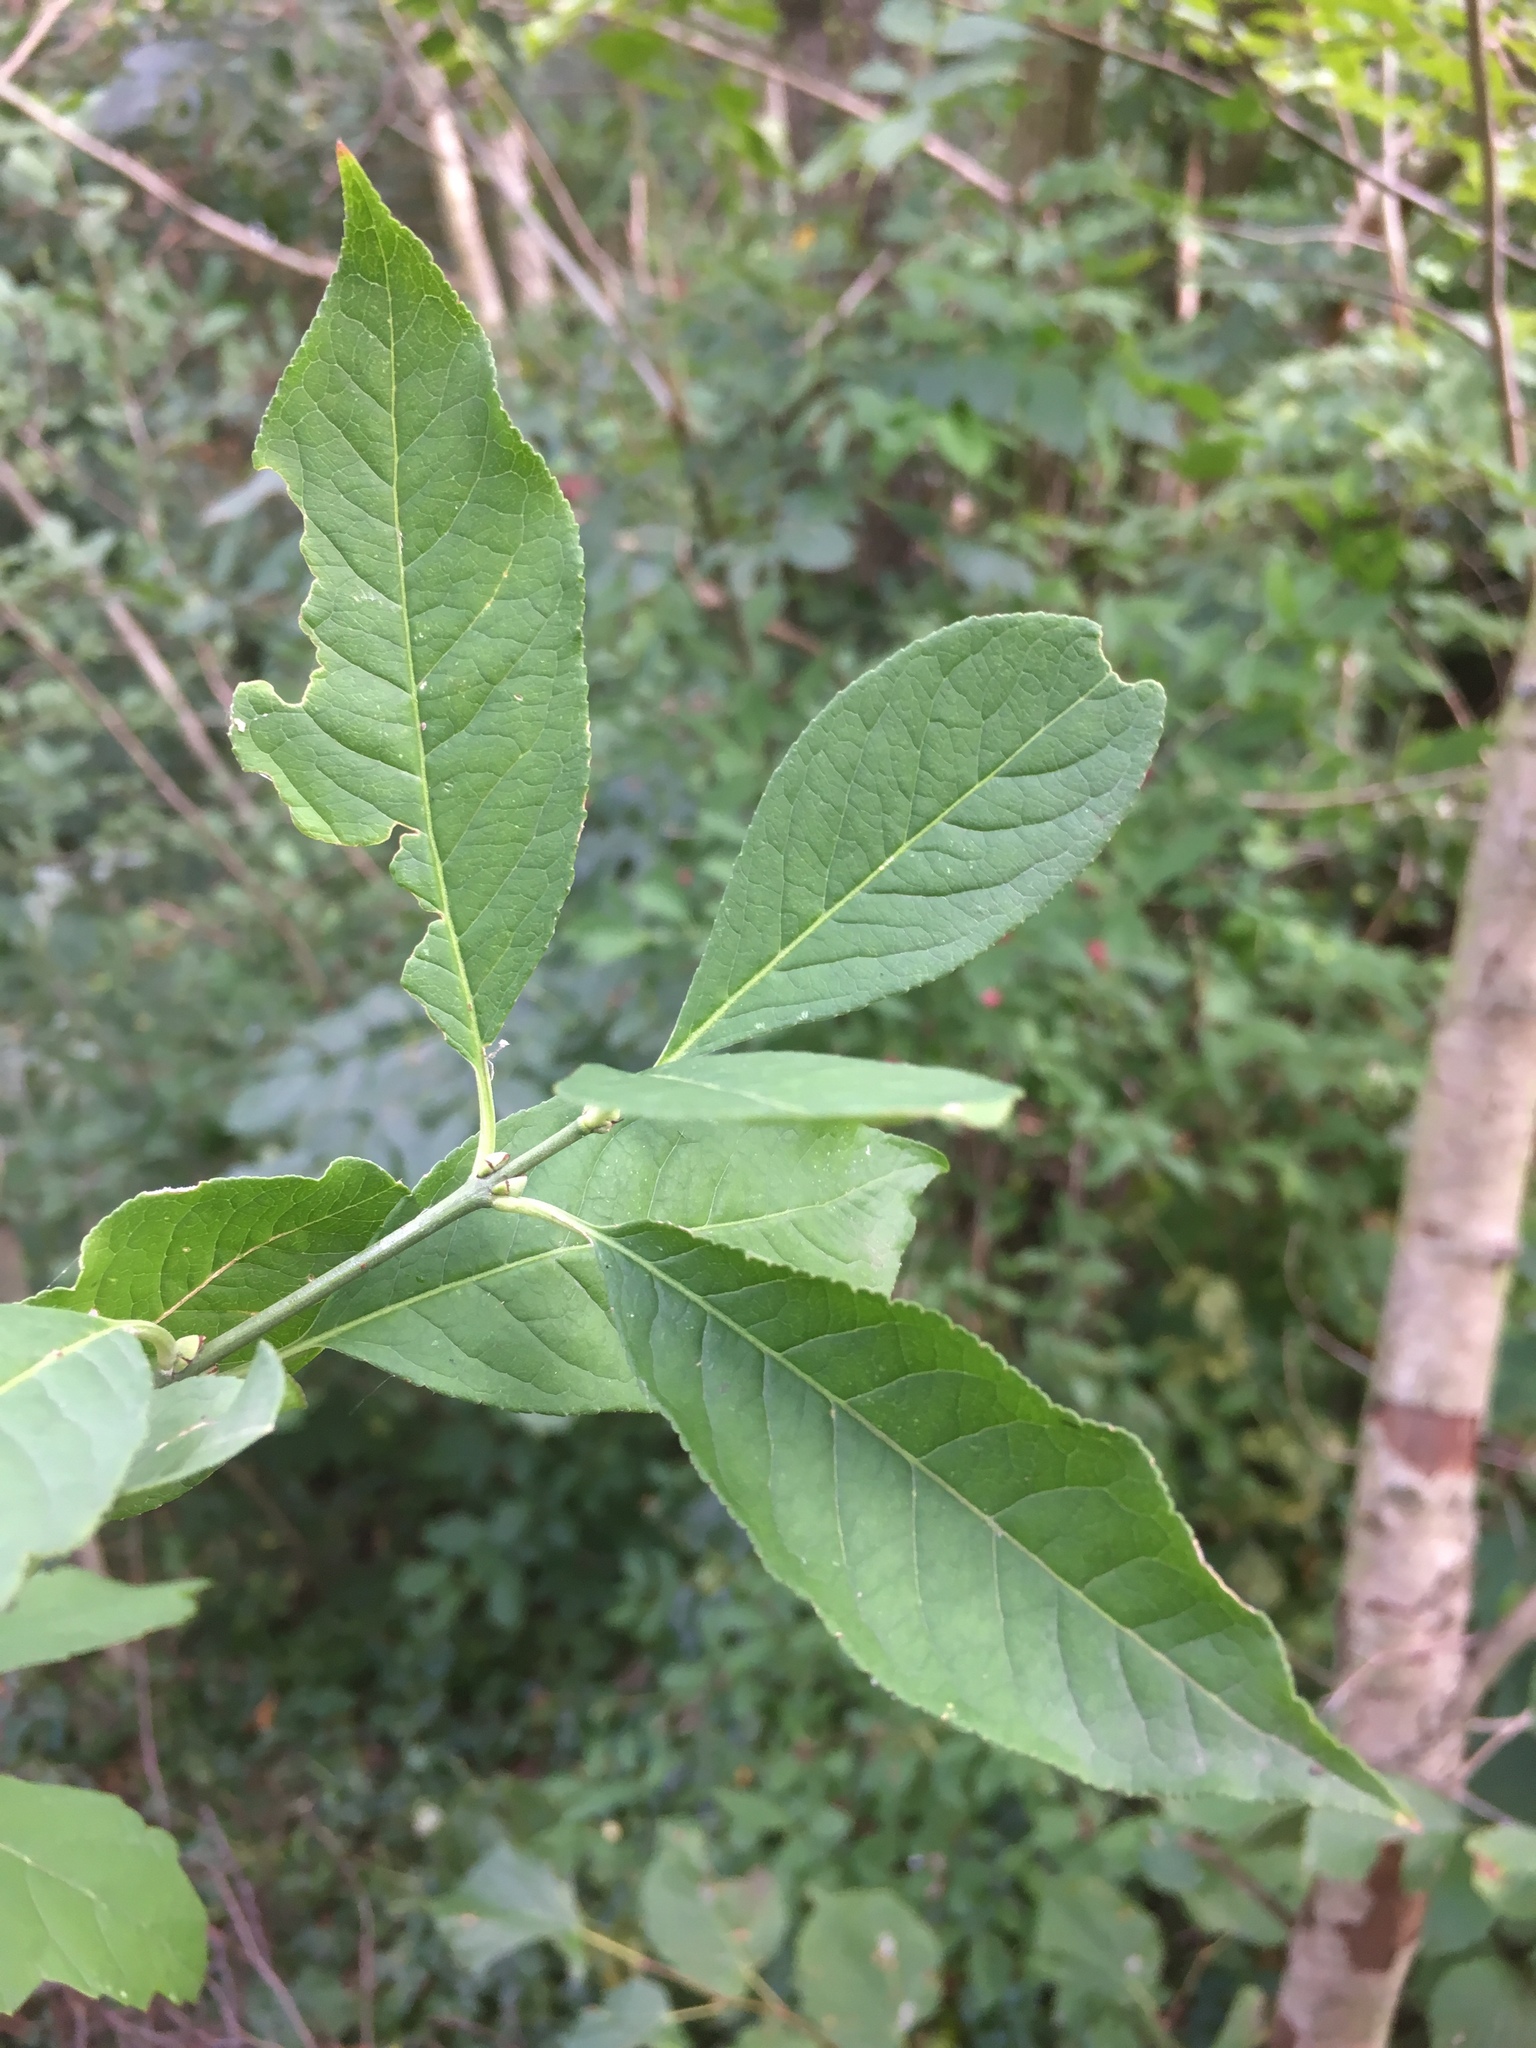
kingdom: Plantae
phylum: Tracheophyta
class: Magnoliopsida
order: Celastrales
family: Celastraceae
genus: Euonymus
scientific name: Euonymus europaeus
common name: Spindle
